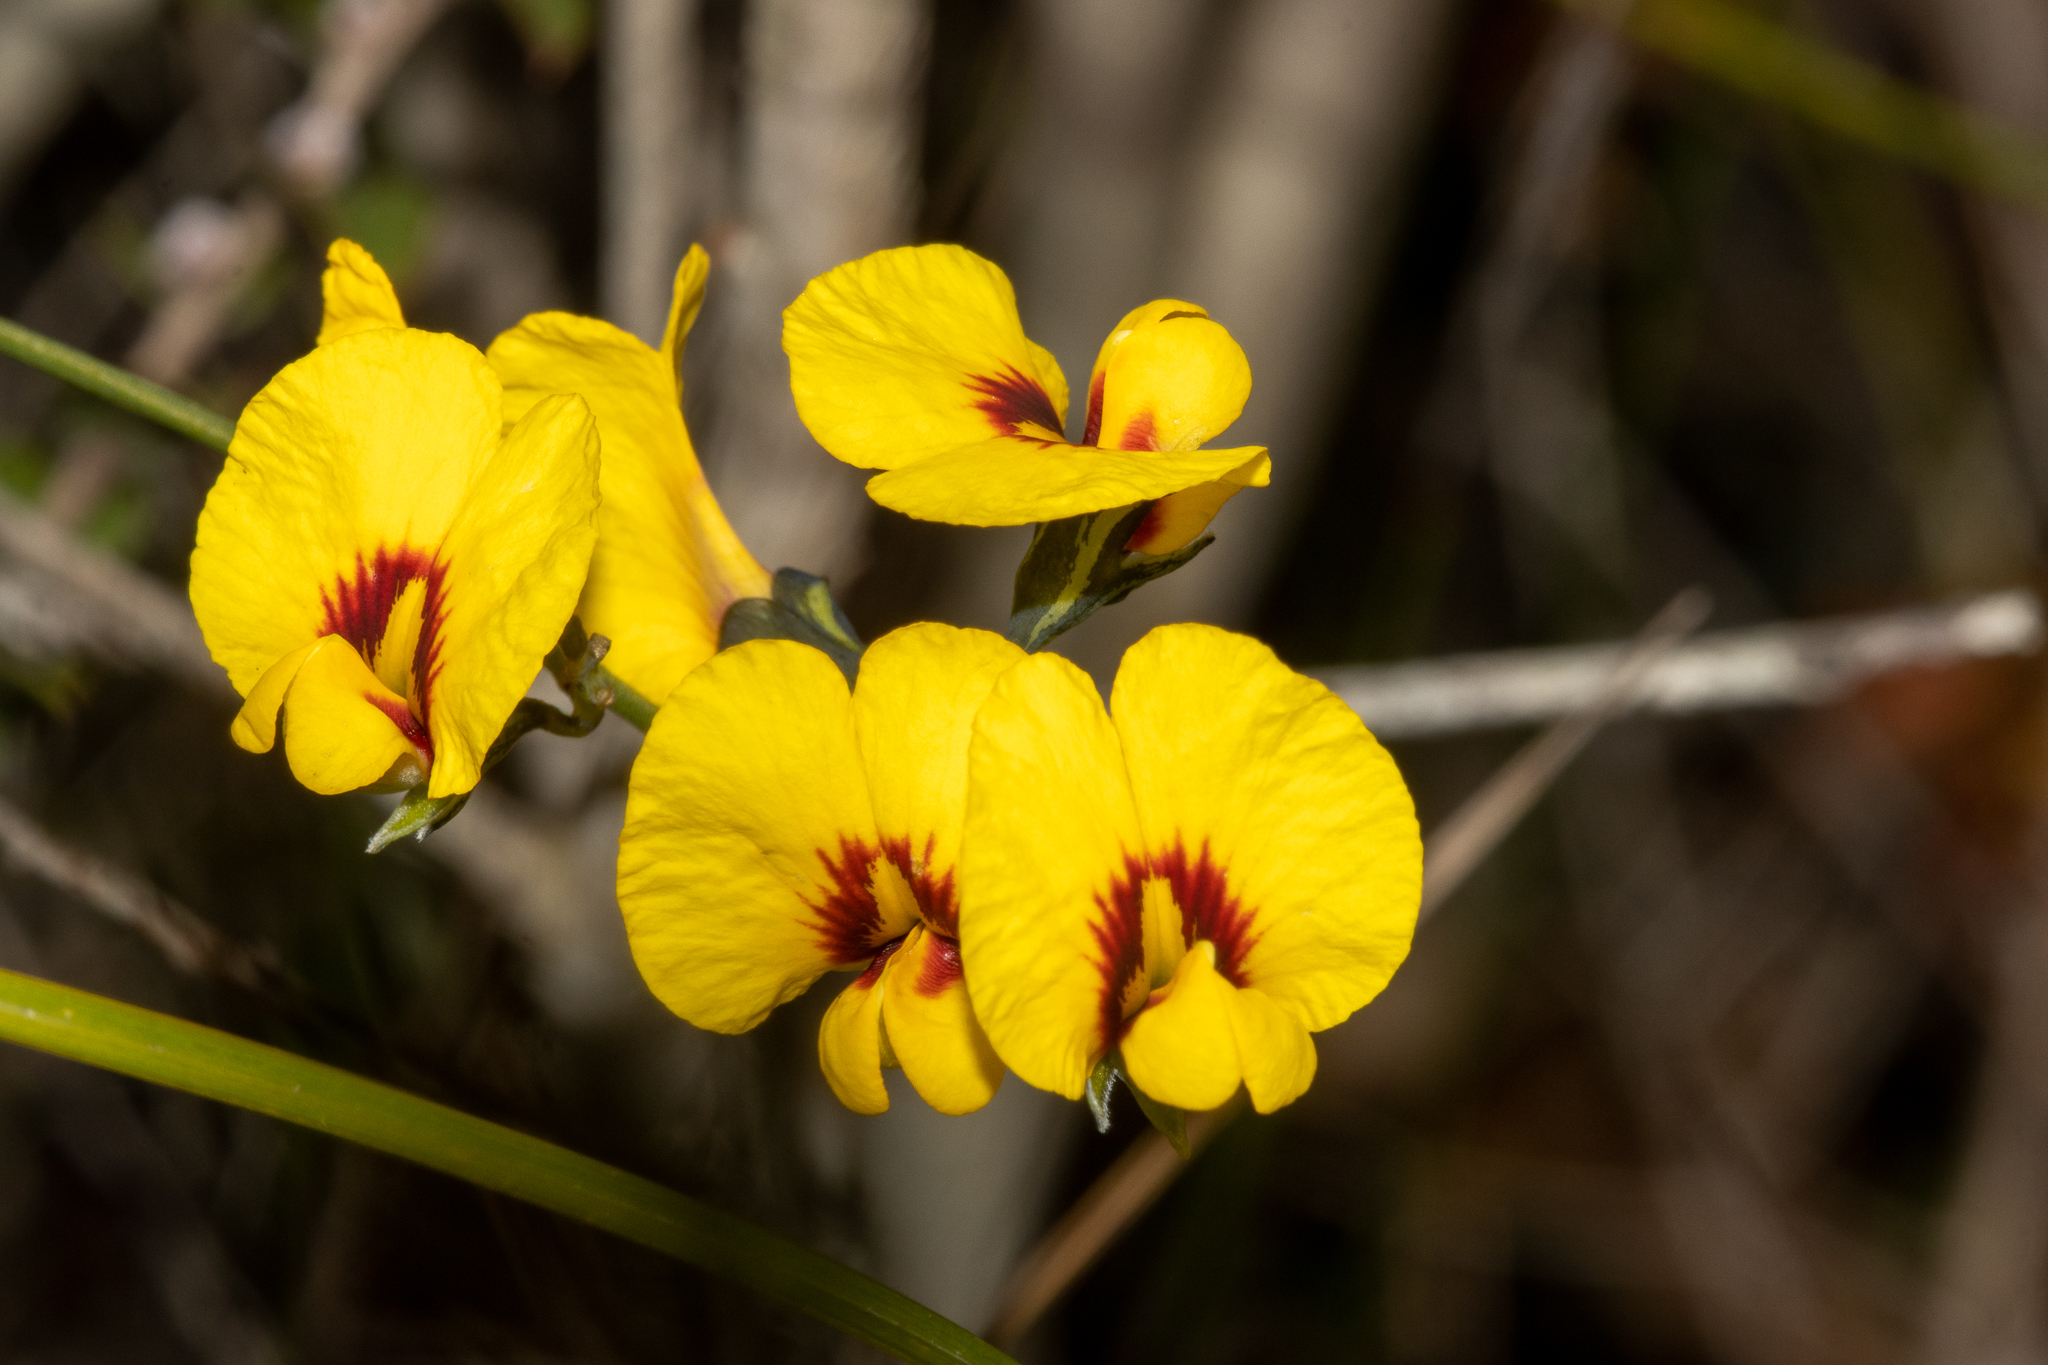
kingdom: Plantae
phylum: Tracheophyta
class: Magnoliopsida
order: Fabales
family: Fabaceae
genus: Sphaerolobium
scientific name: Sphaerolobium alatum
